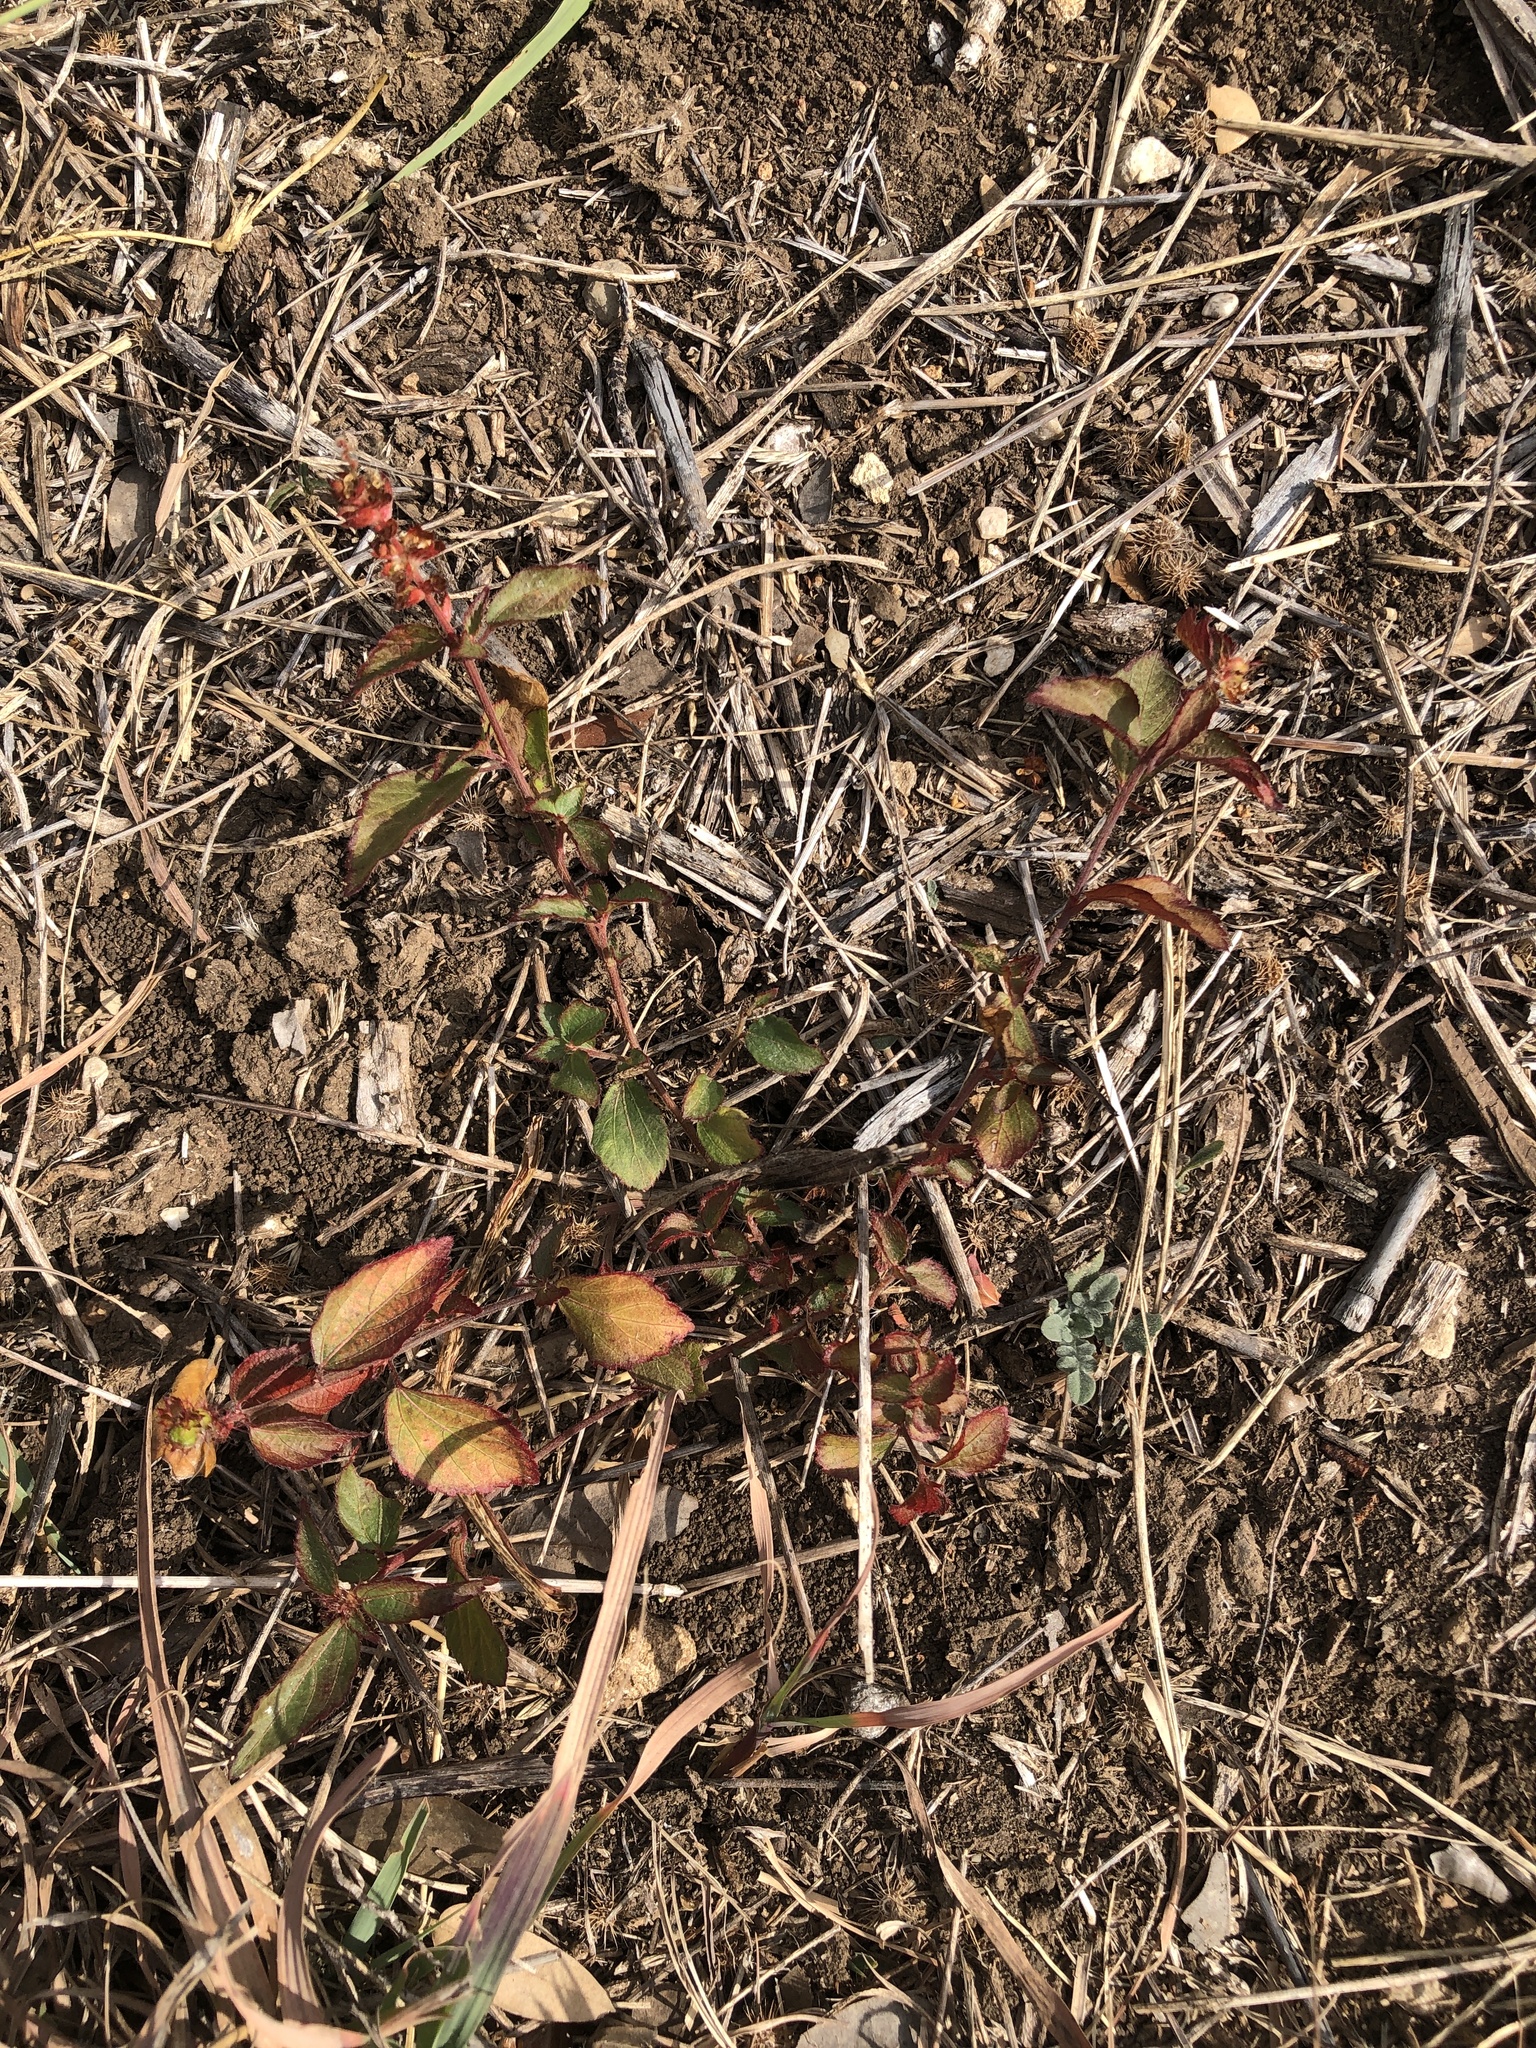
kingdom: Plantae
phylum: Tracheophyta
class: Magnoliopsida
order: Malpighiales
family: Euphorbiaceae
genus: Acalypha
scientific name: Acalypha phleoides
